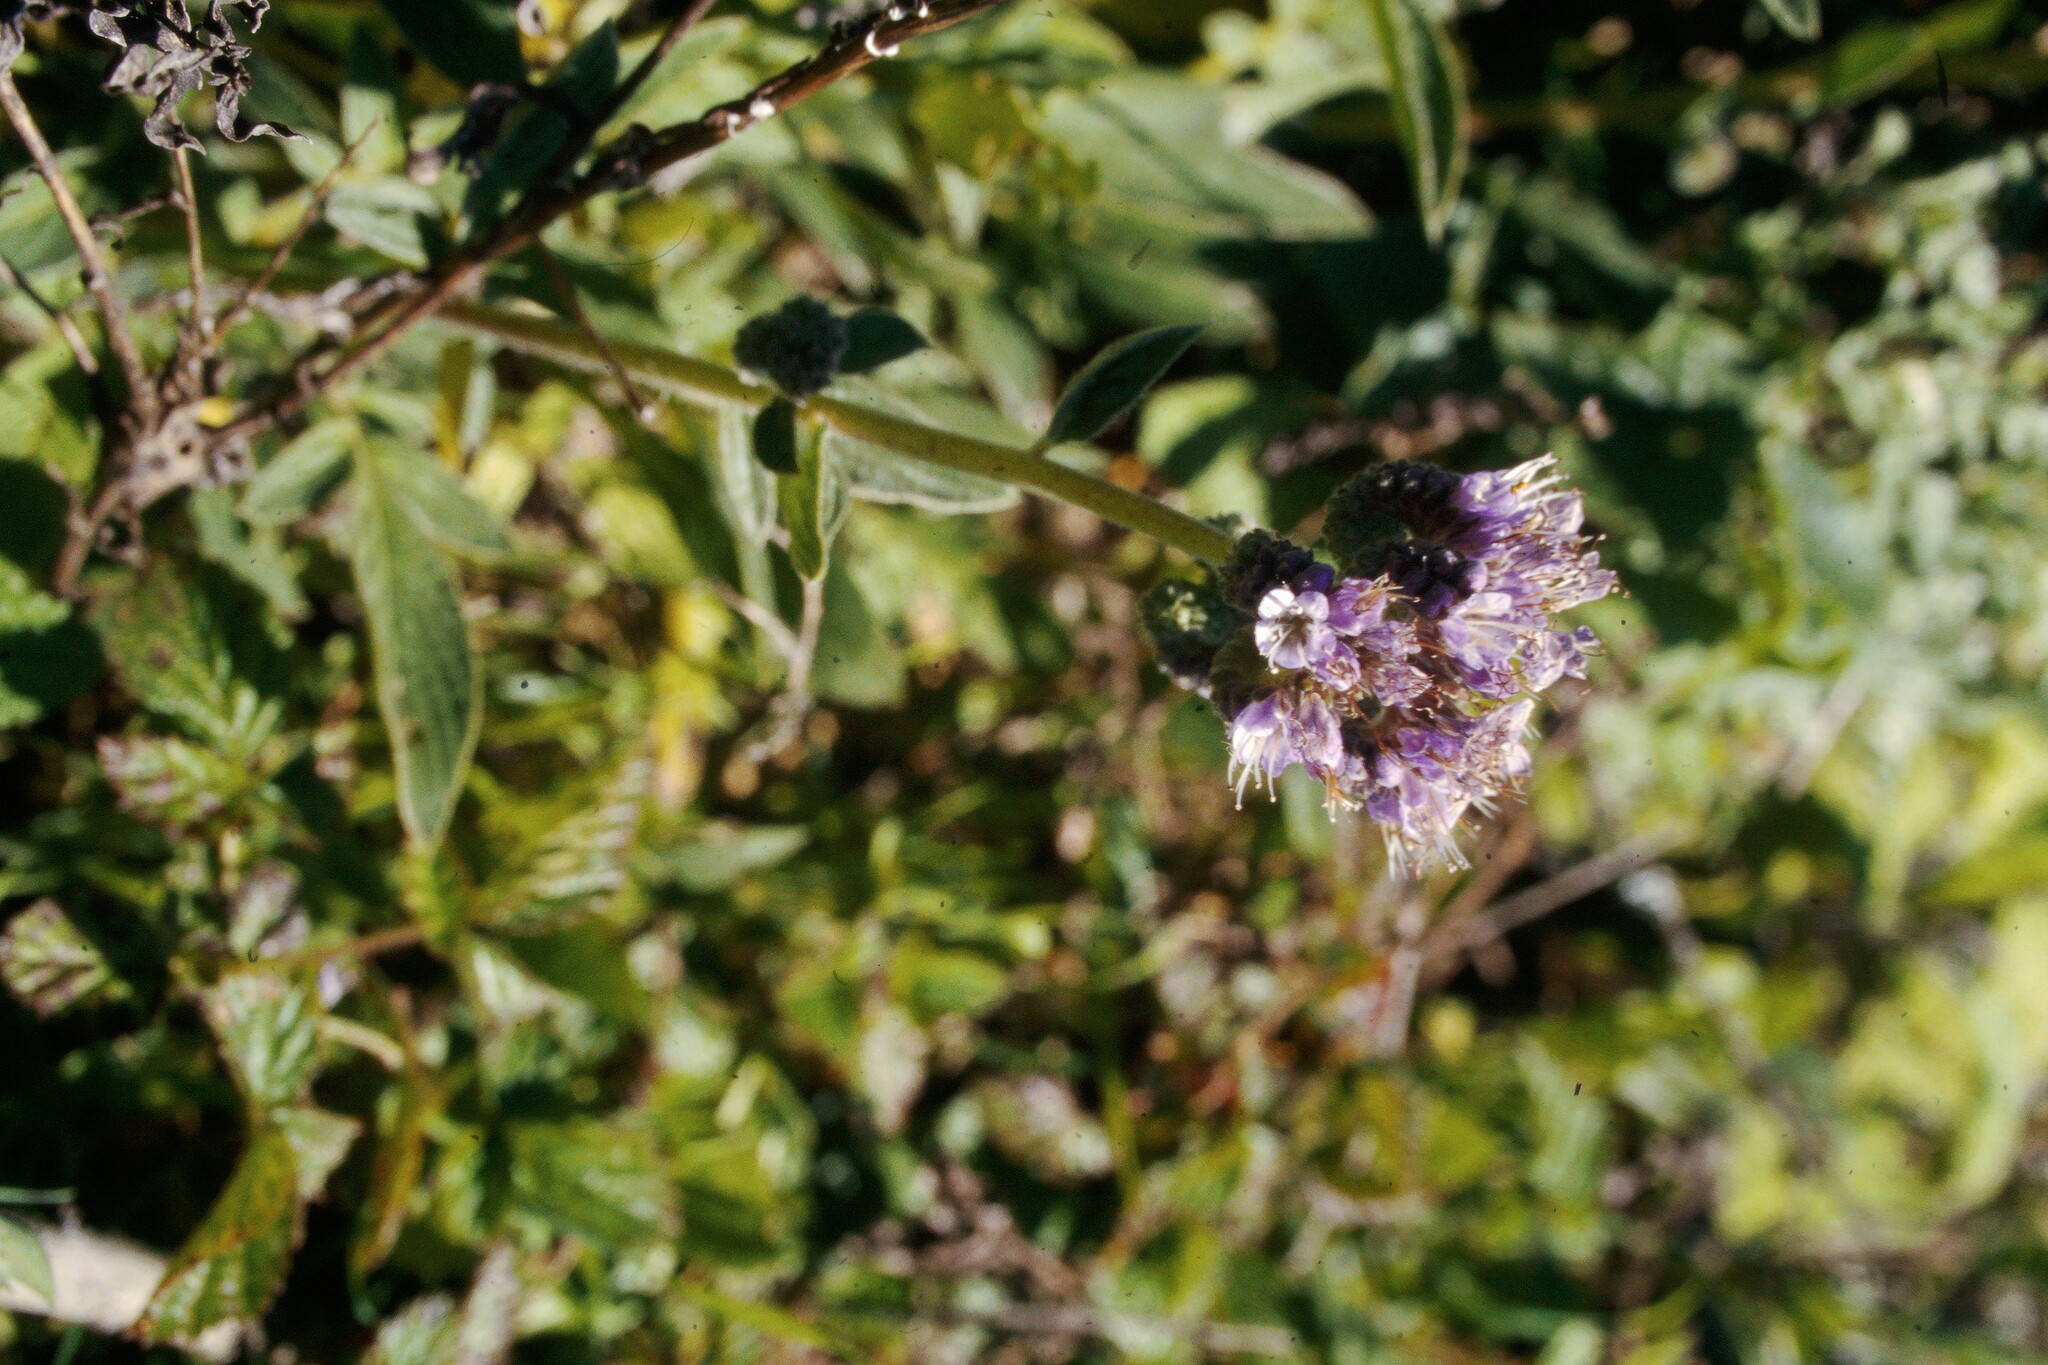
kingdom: Plantae
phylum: Tracheophyta
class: Magnoliopsida
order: Boraginales
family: Hydrophyllaceae
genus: Phacelia
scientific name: Phacelia californica
